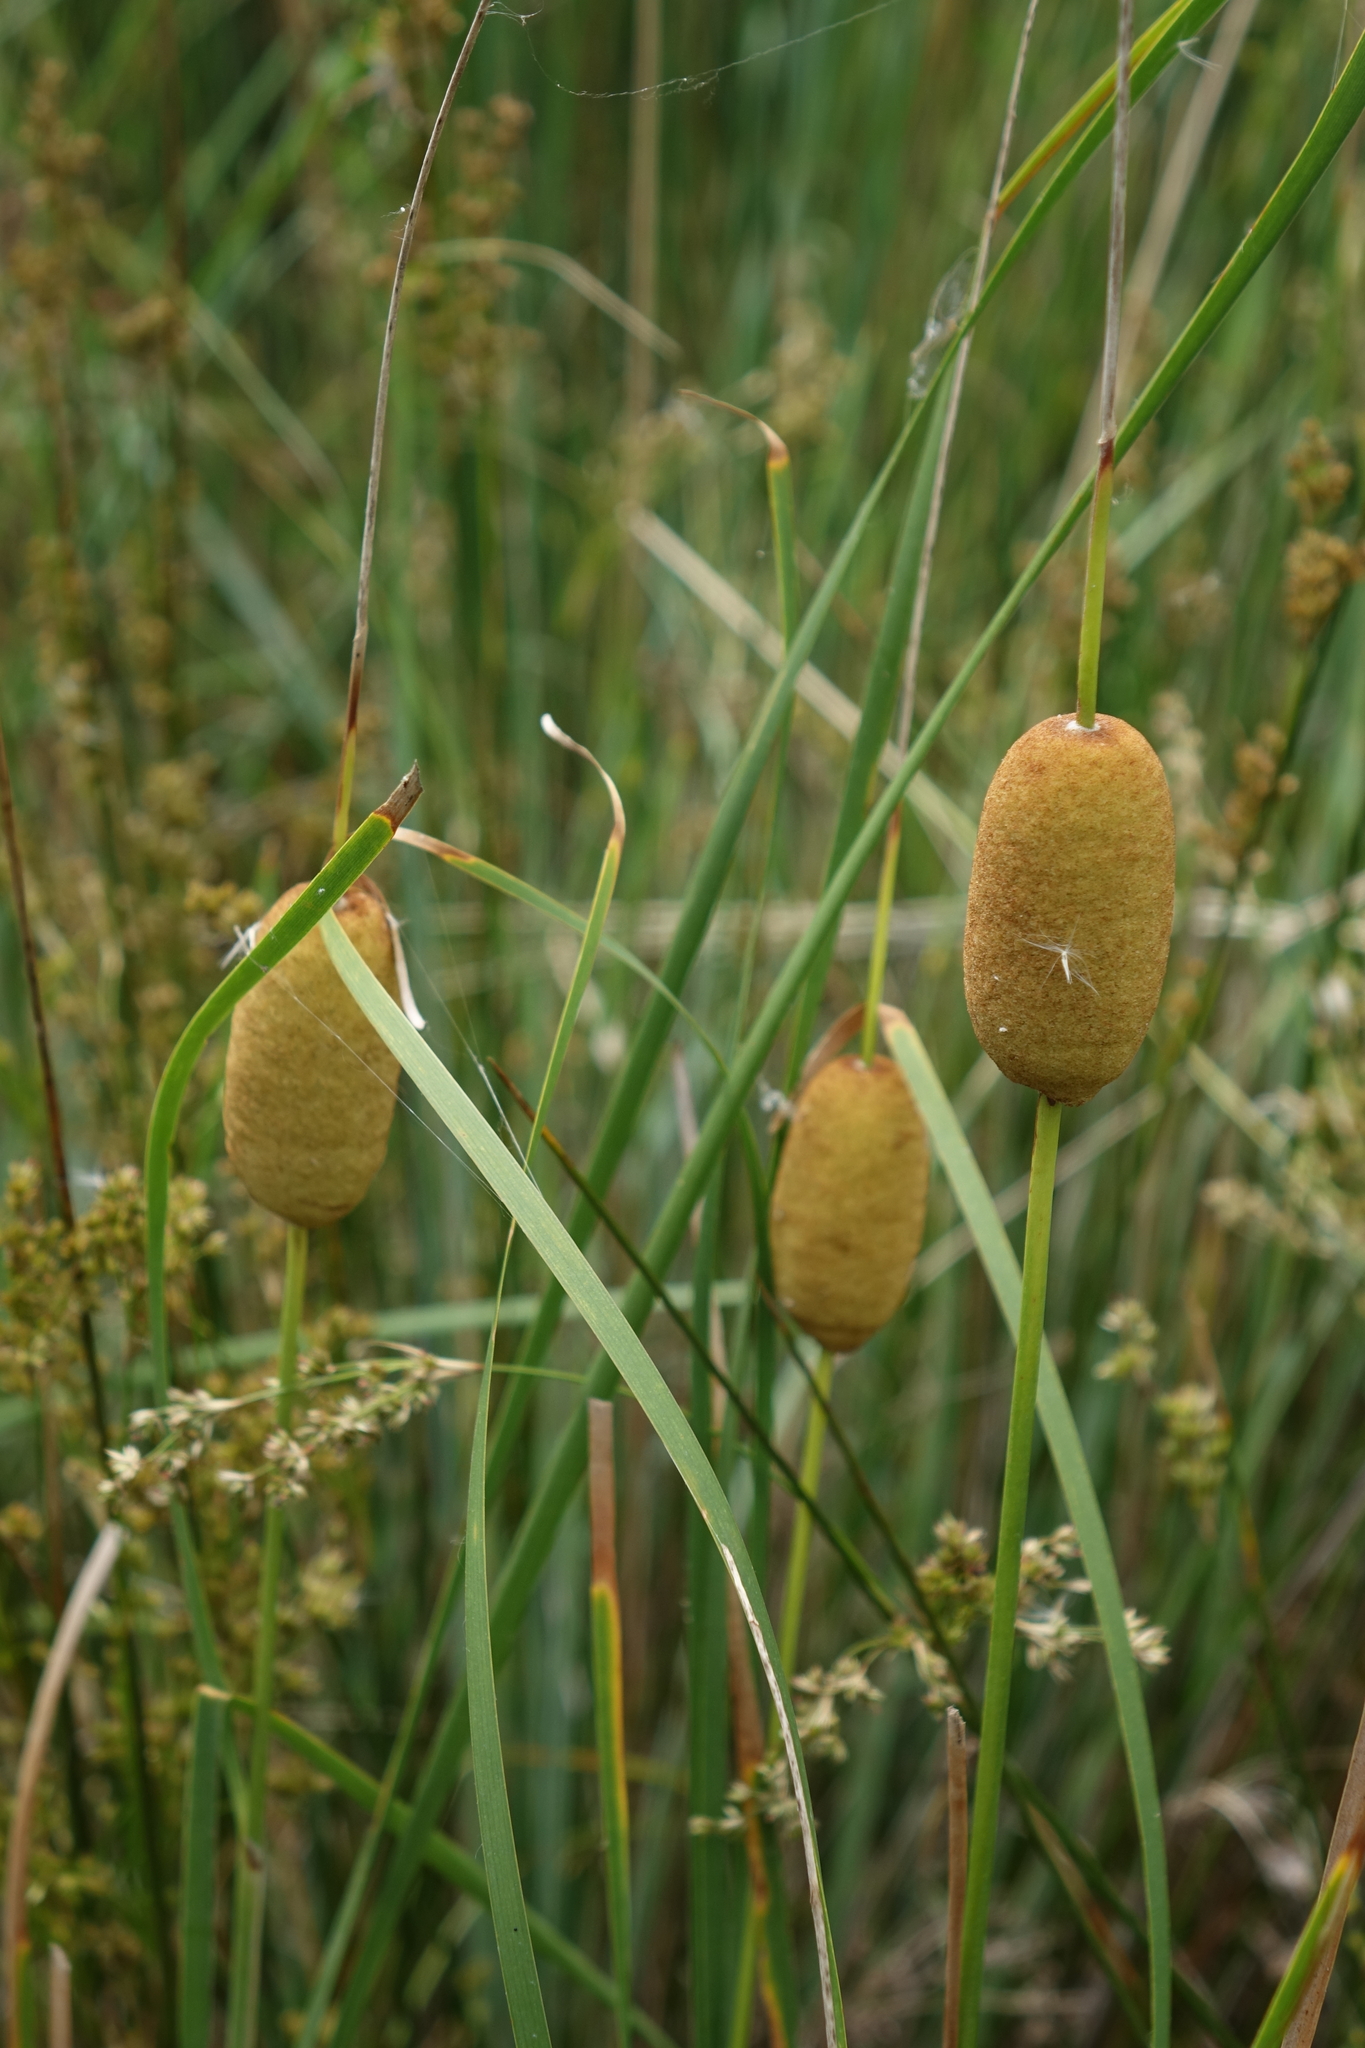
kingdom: Plantae
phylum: Tracheophyta
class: Liliopsida
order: Poales
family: Typhaceae
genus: Typha
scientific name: Typha minima
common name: Dwarf bulrush
